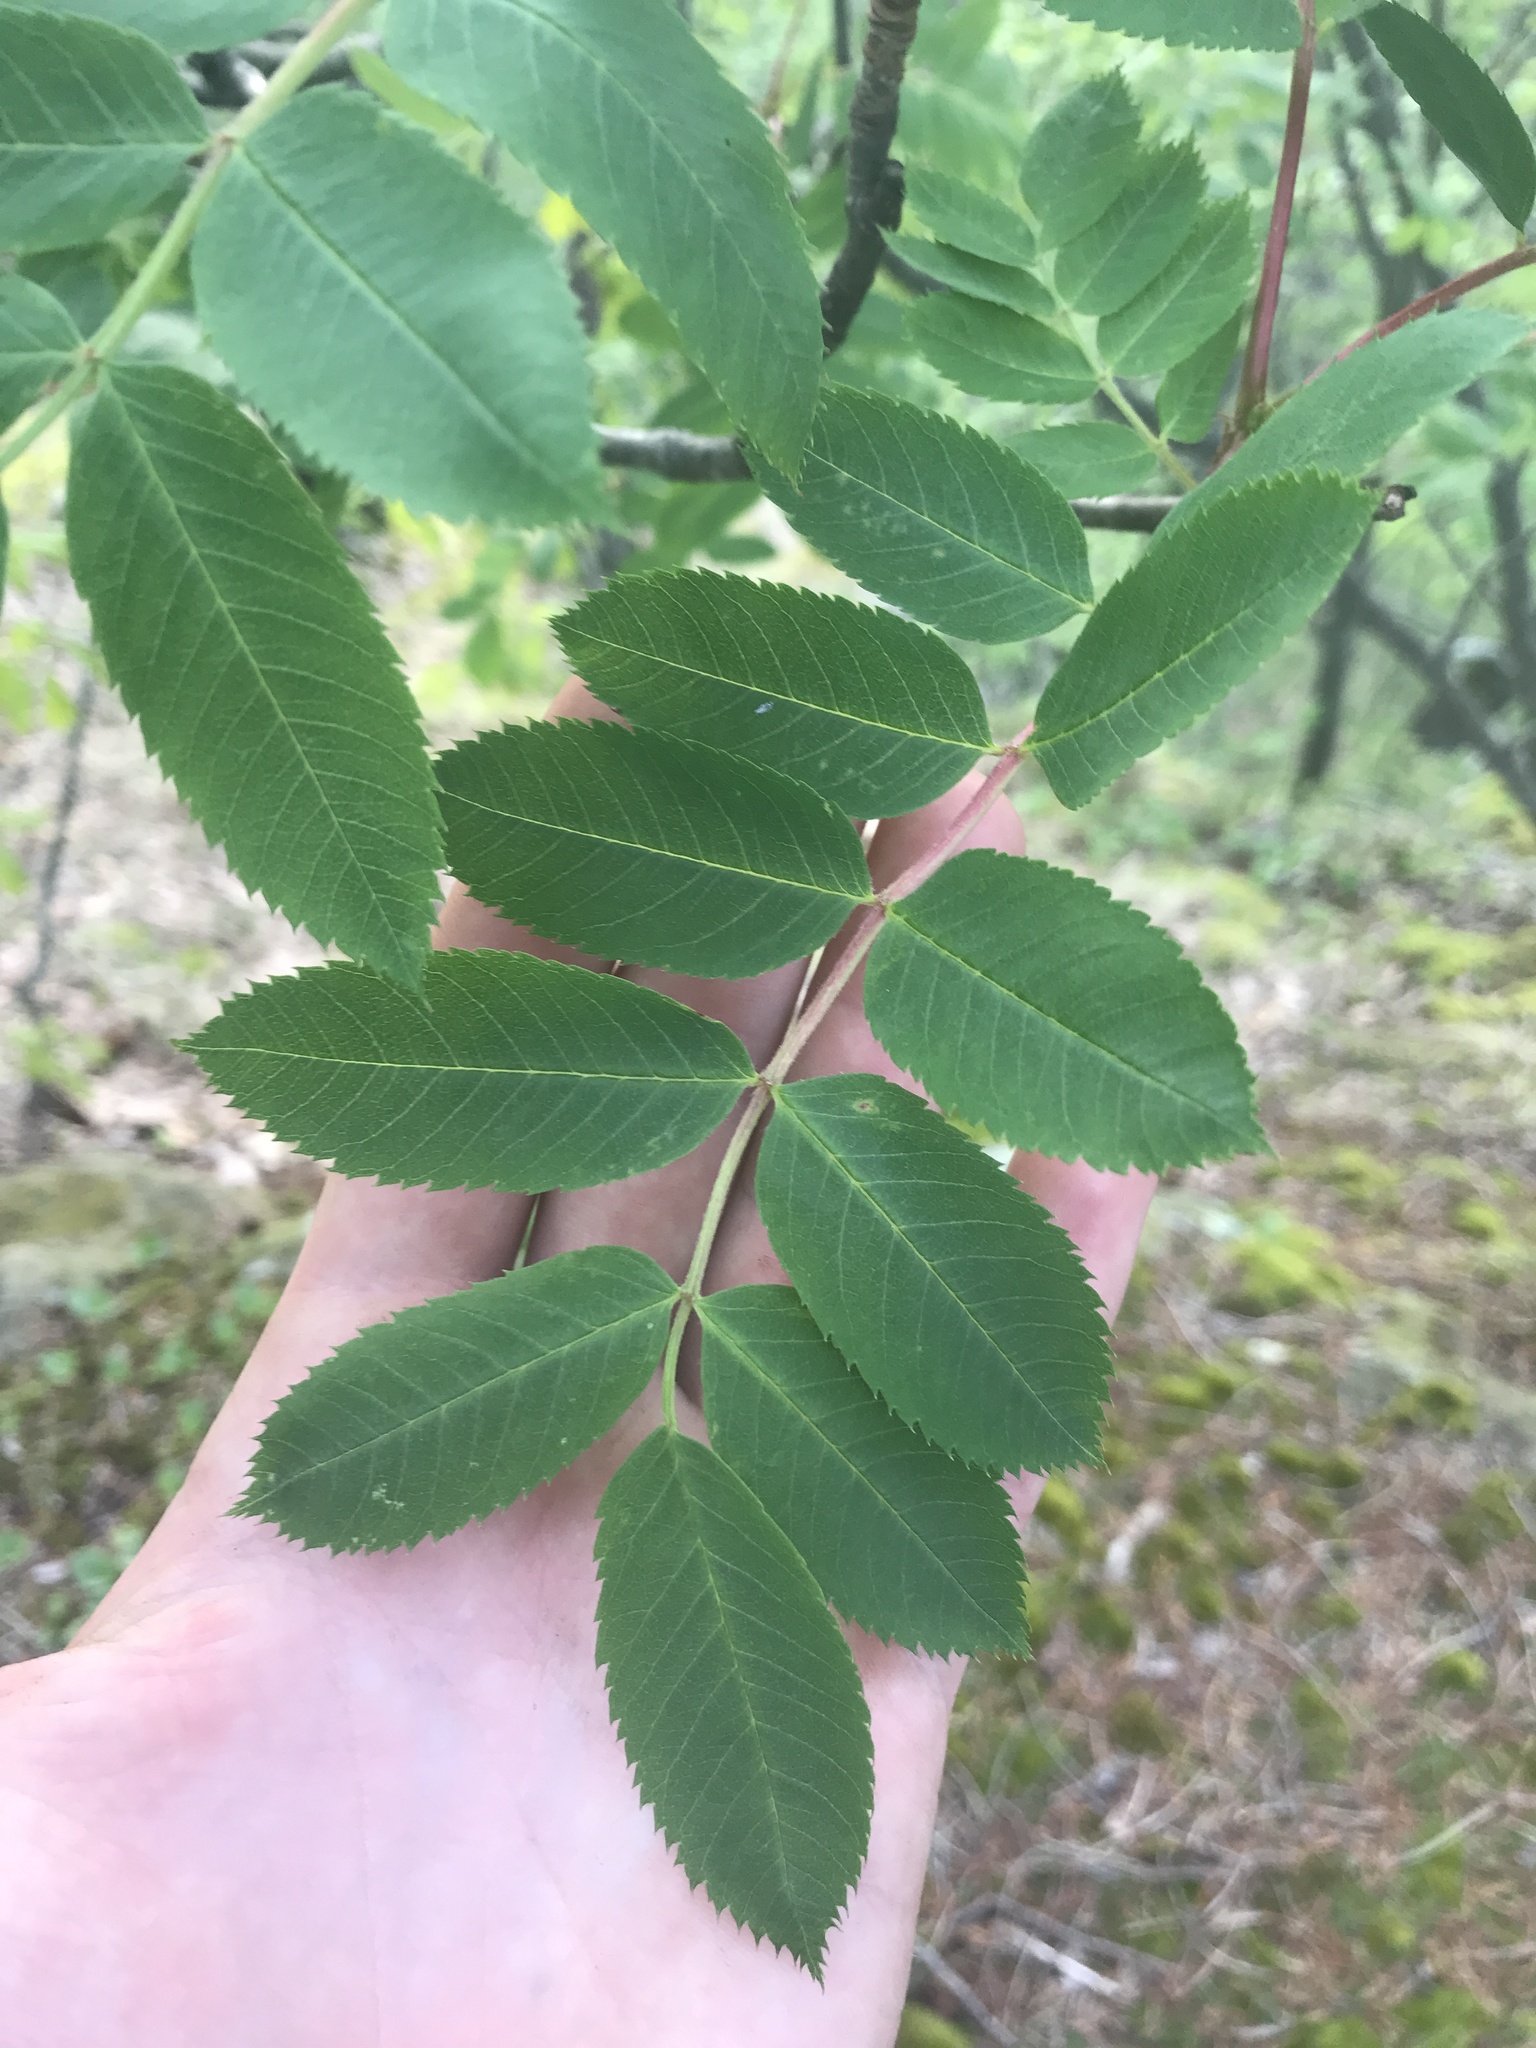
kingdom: Plantae
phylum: Tracheophyta
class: Magnoliopsida
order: Rosales
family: Rosaceae
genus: Sorbus
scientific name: Sorbus decora
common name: Northern mountain-ash
